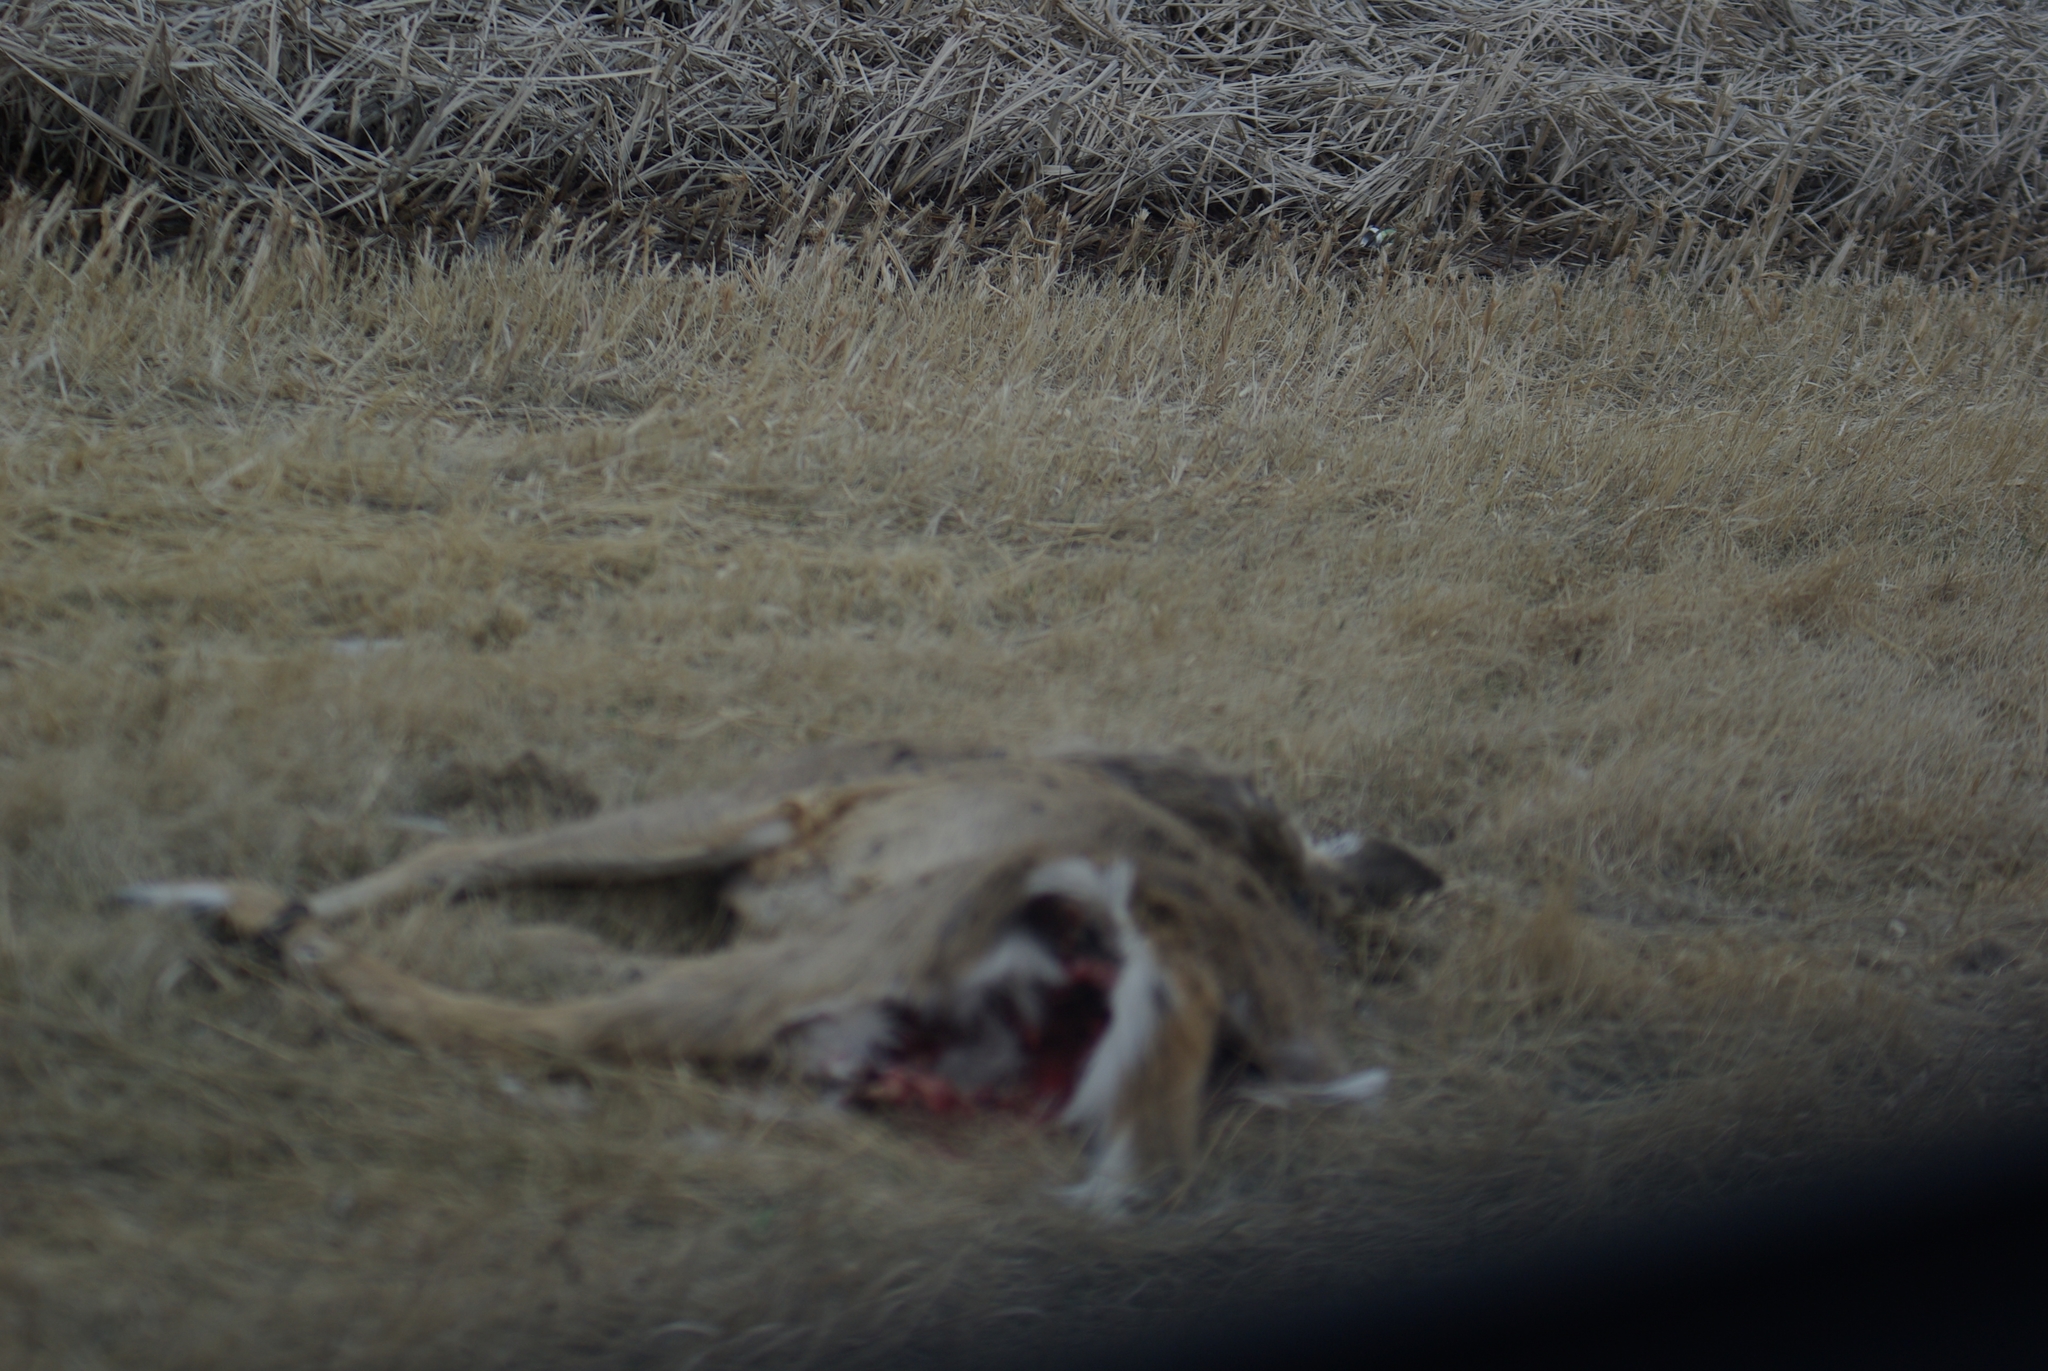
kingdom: Animalia
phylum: Chordata
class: Mammalia
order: Artiodactyla
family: Cervidae
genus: Odocoileus
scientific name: Odocoileus virginianus
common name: White-tailed deer
